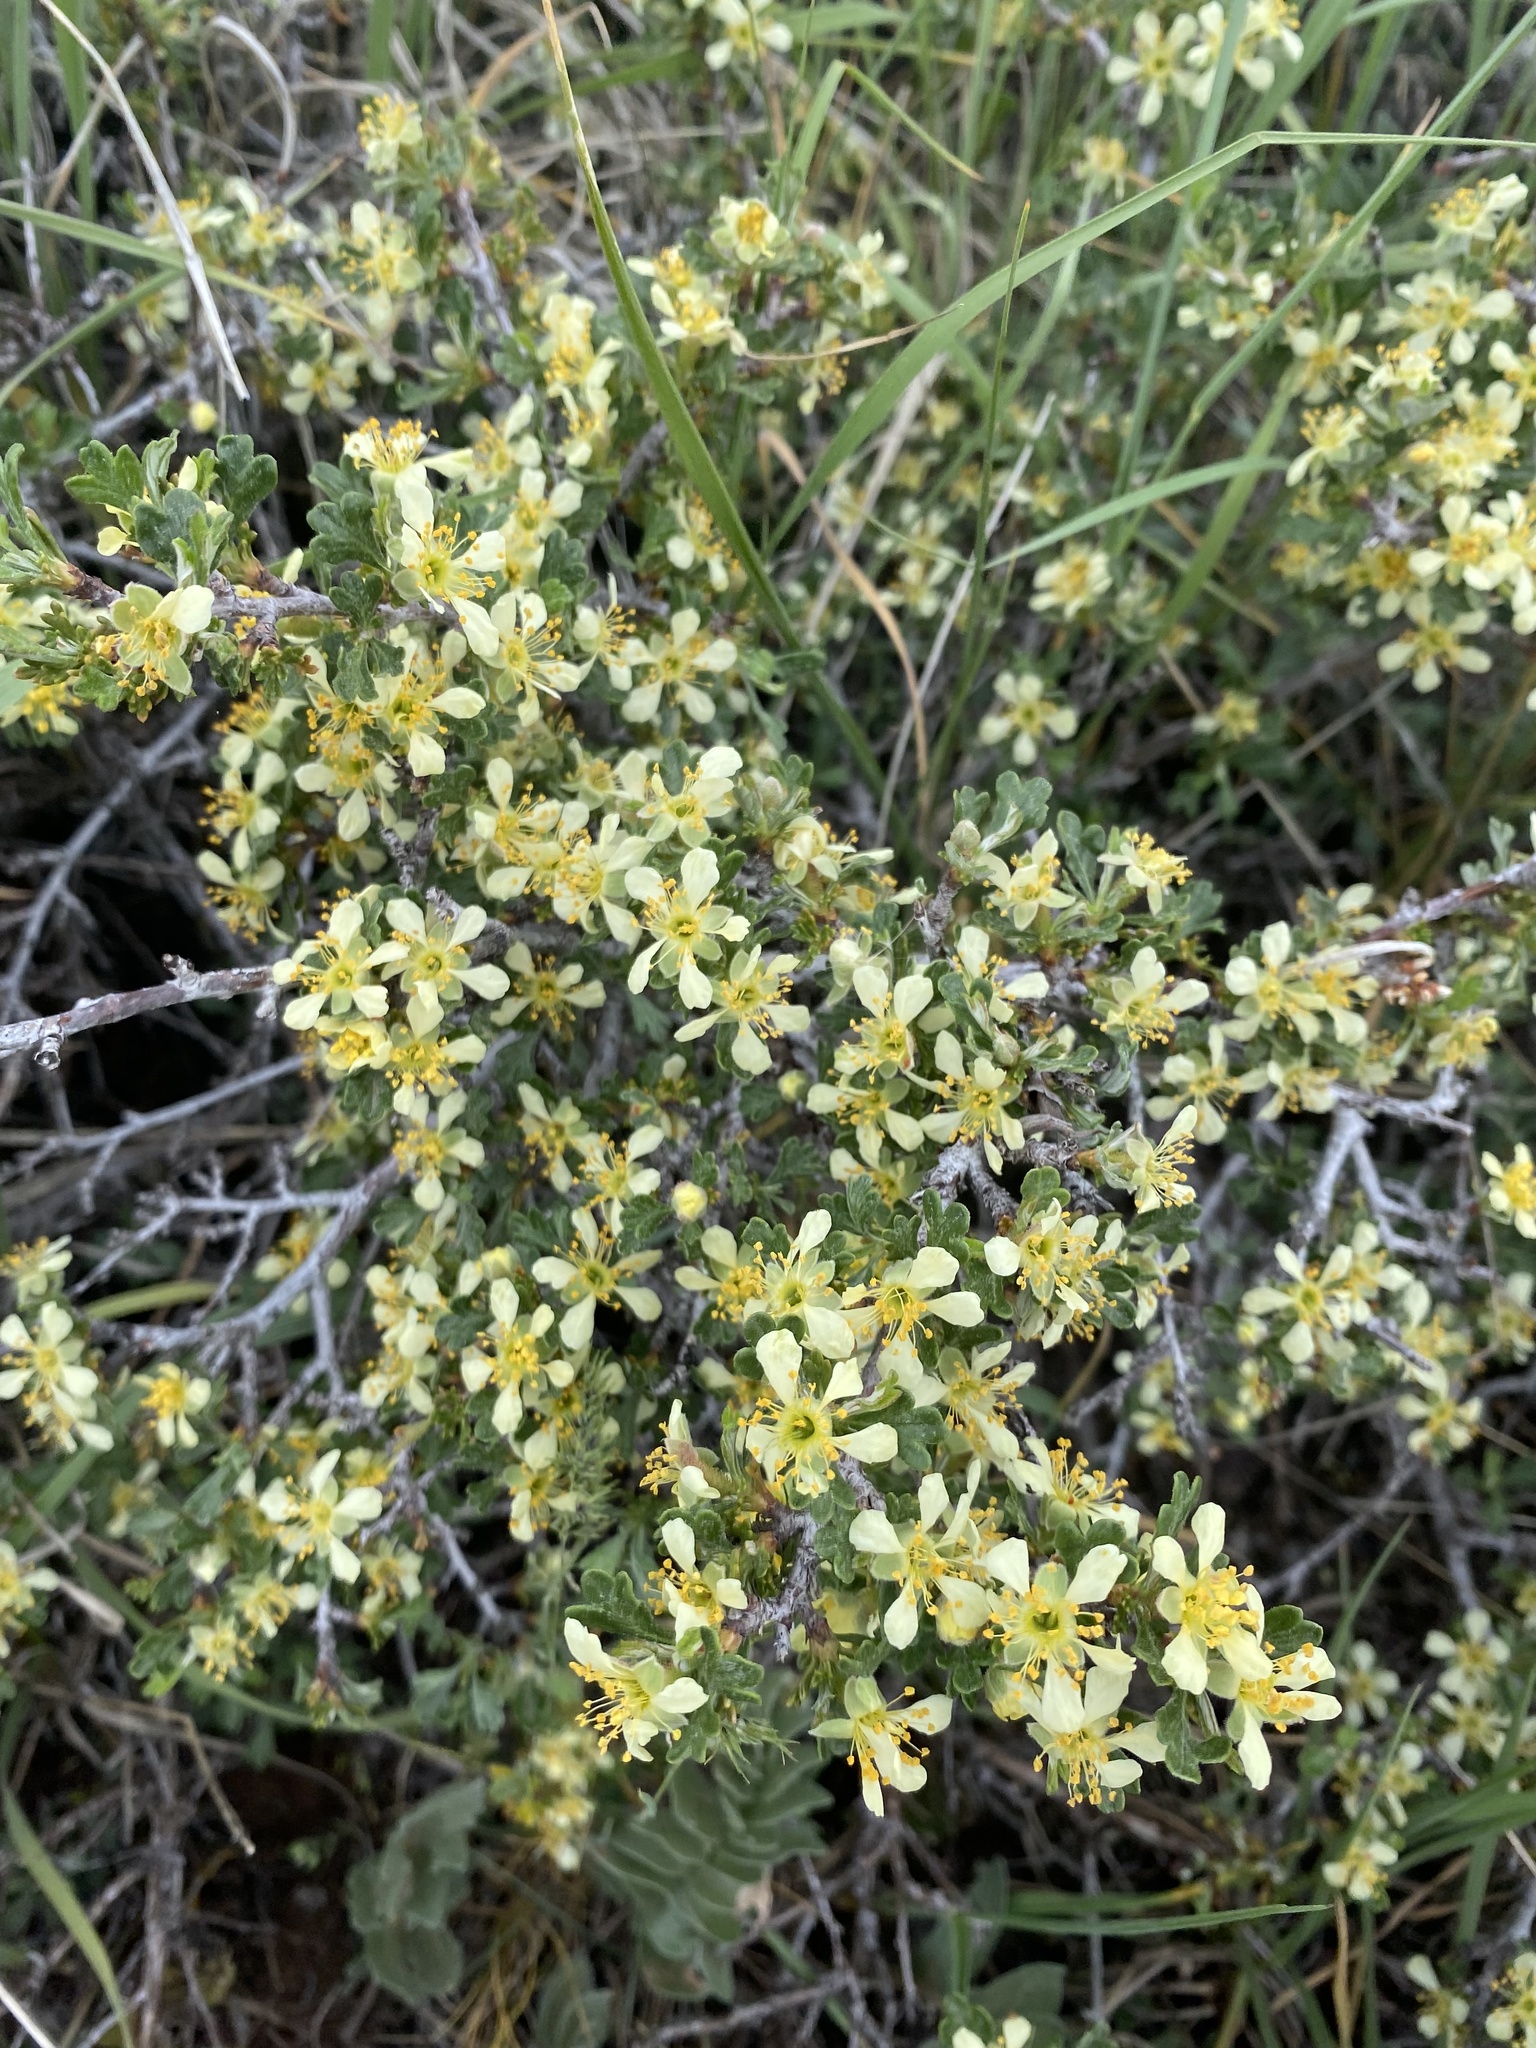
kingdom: Plantae
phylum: Tracheophyta
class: Magnoliopsida
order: Rosales
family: Rosaceae
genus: Purshia
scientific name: Purshia tridentata
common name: Antelope bitterbrush
